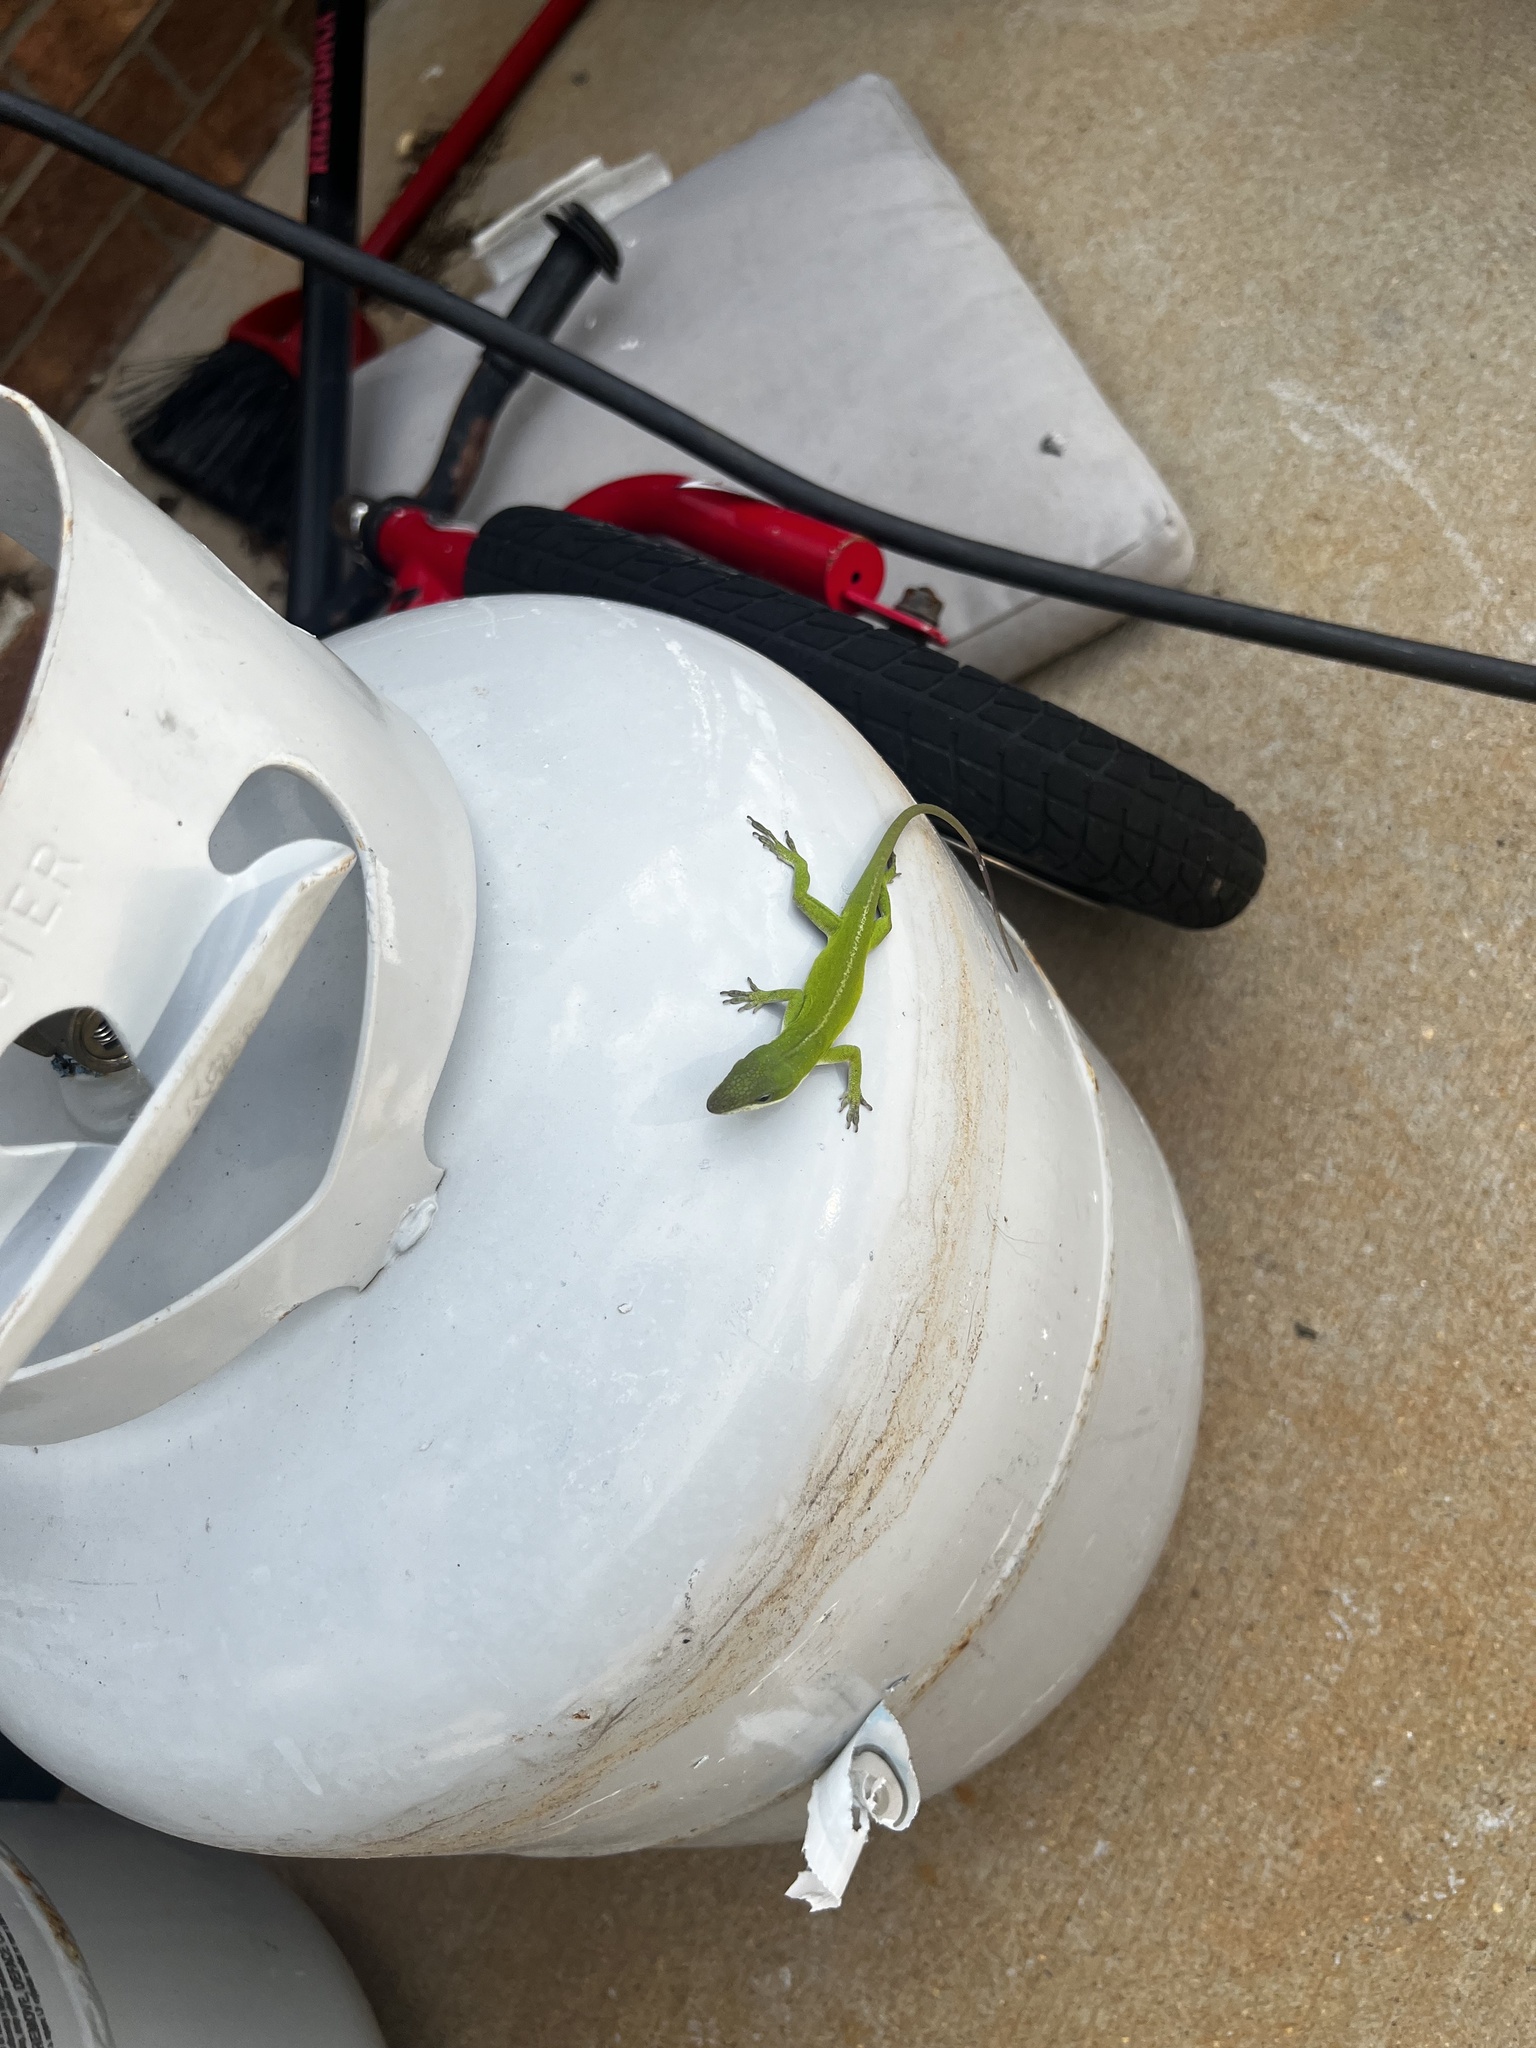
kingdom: Animalia
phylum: Chordata
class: Squamata
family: Dactyloidae
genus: Anolis
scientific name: Anolis carolinensis
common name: Green anole
